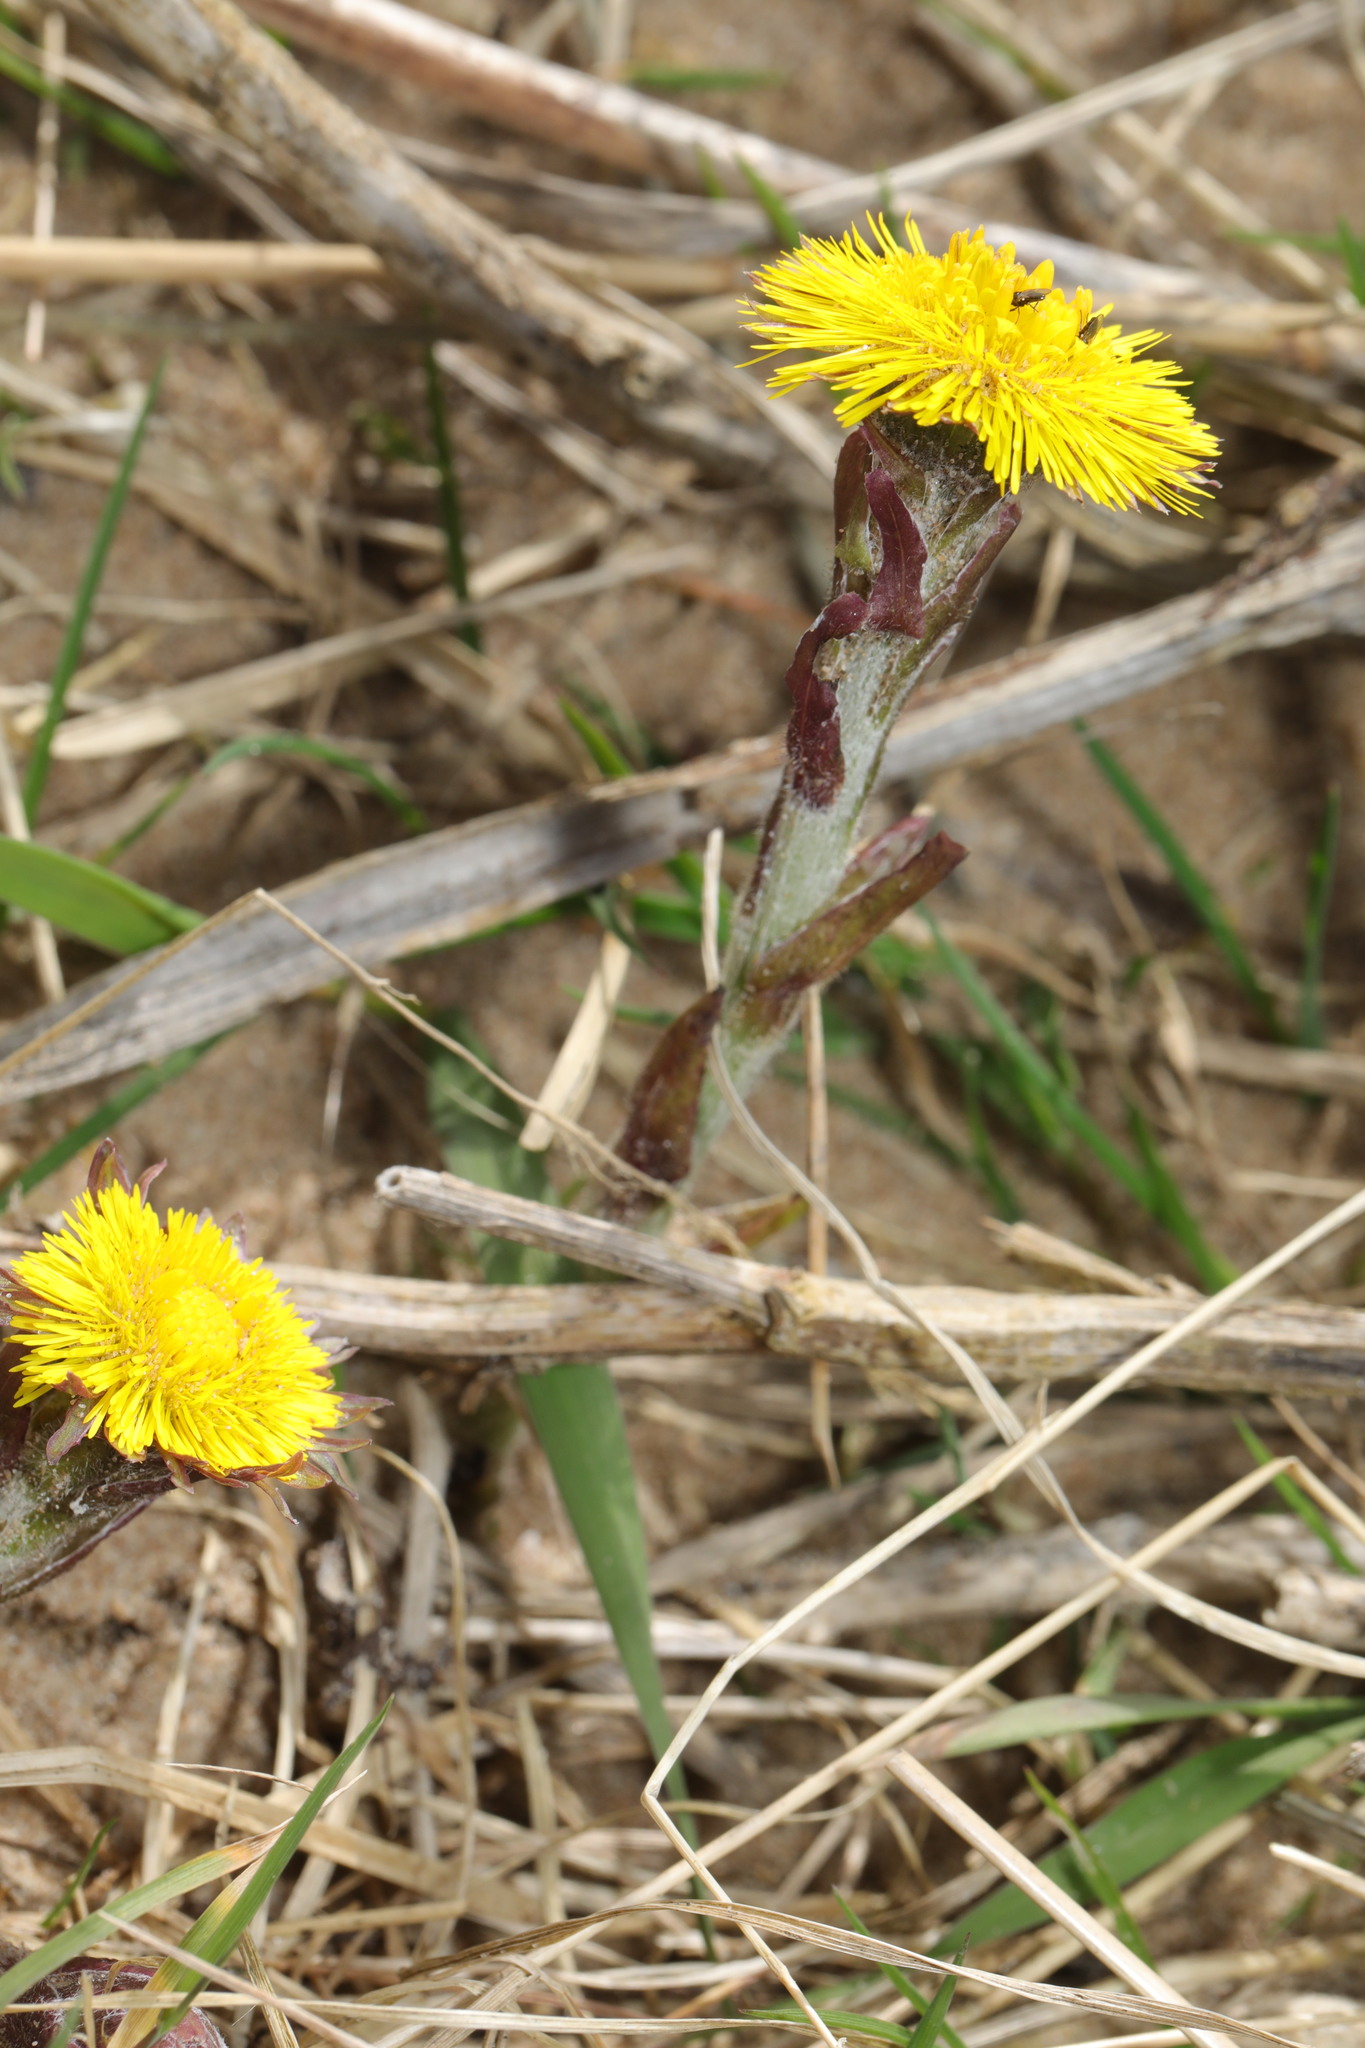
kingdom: Plantae
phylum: Tracheophyta
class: Magnoliopsida
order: Asterales
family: Asteraceae
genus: Tussilago
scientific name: Tussilago farfara
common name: Coltsfoot
